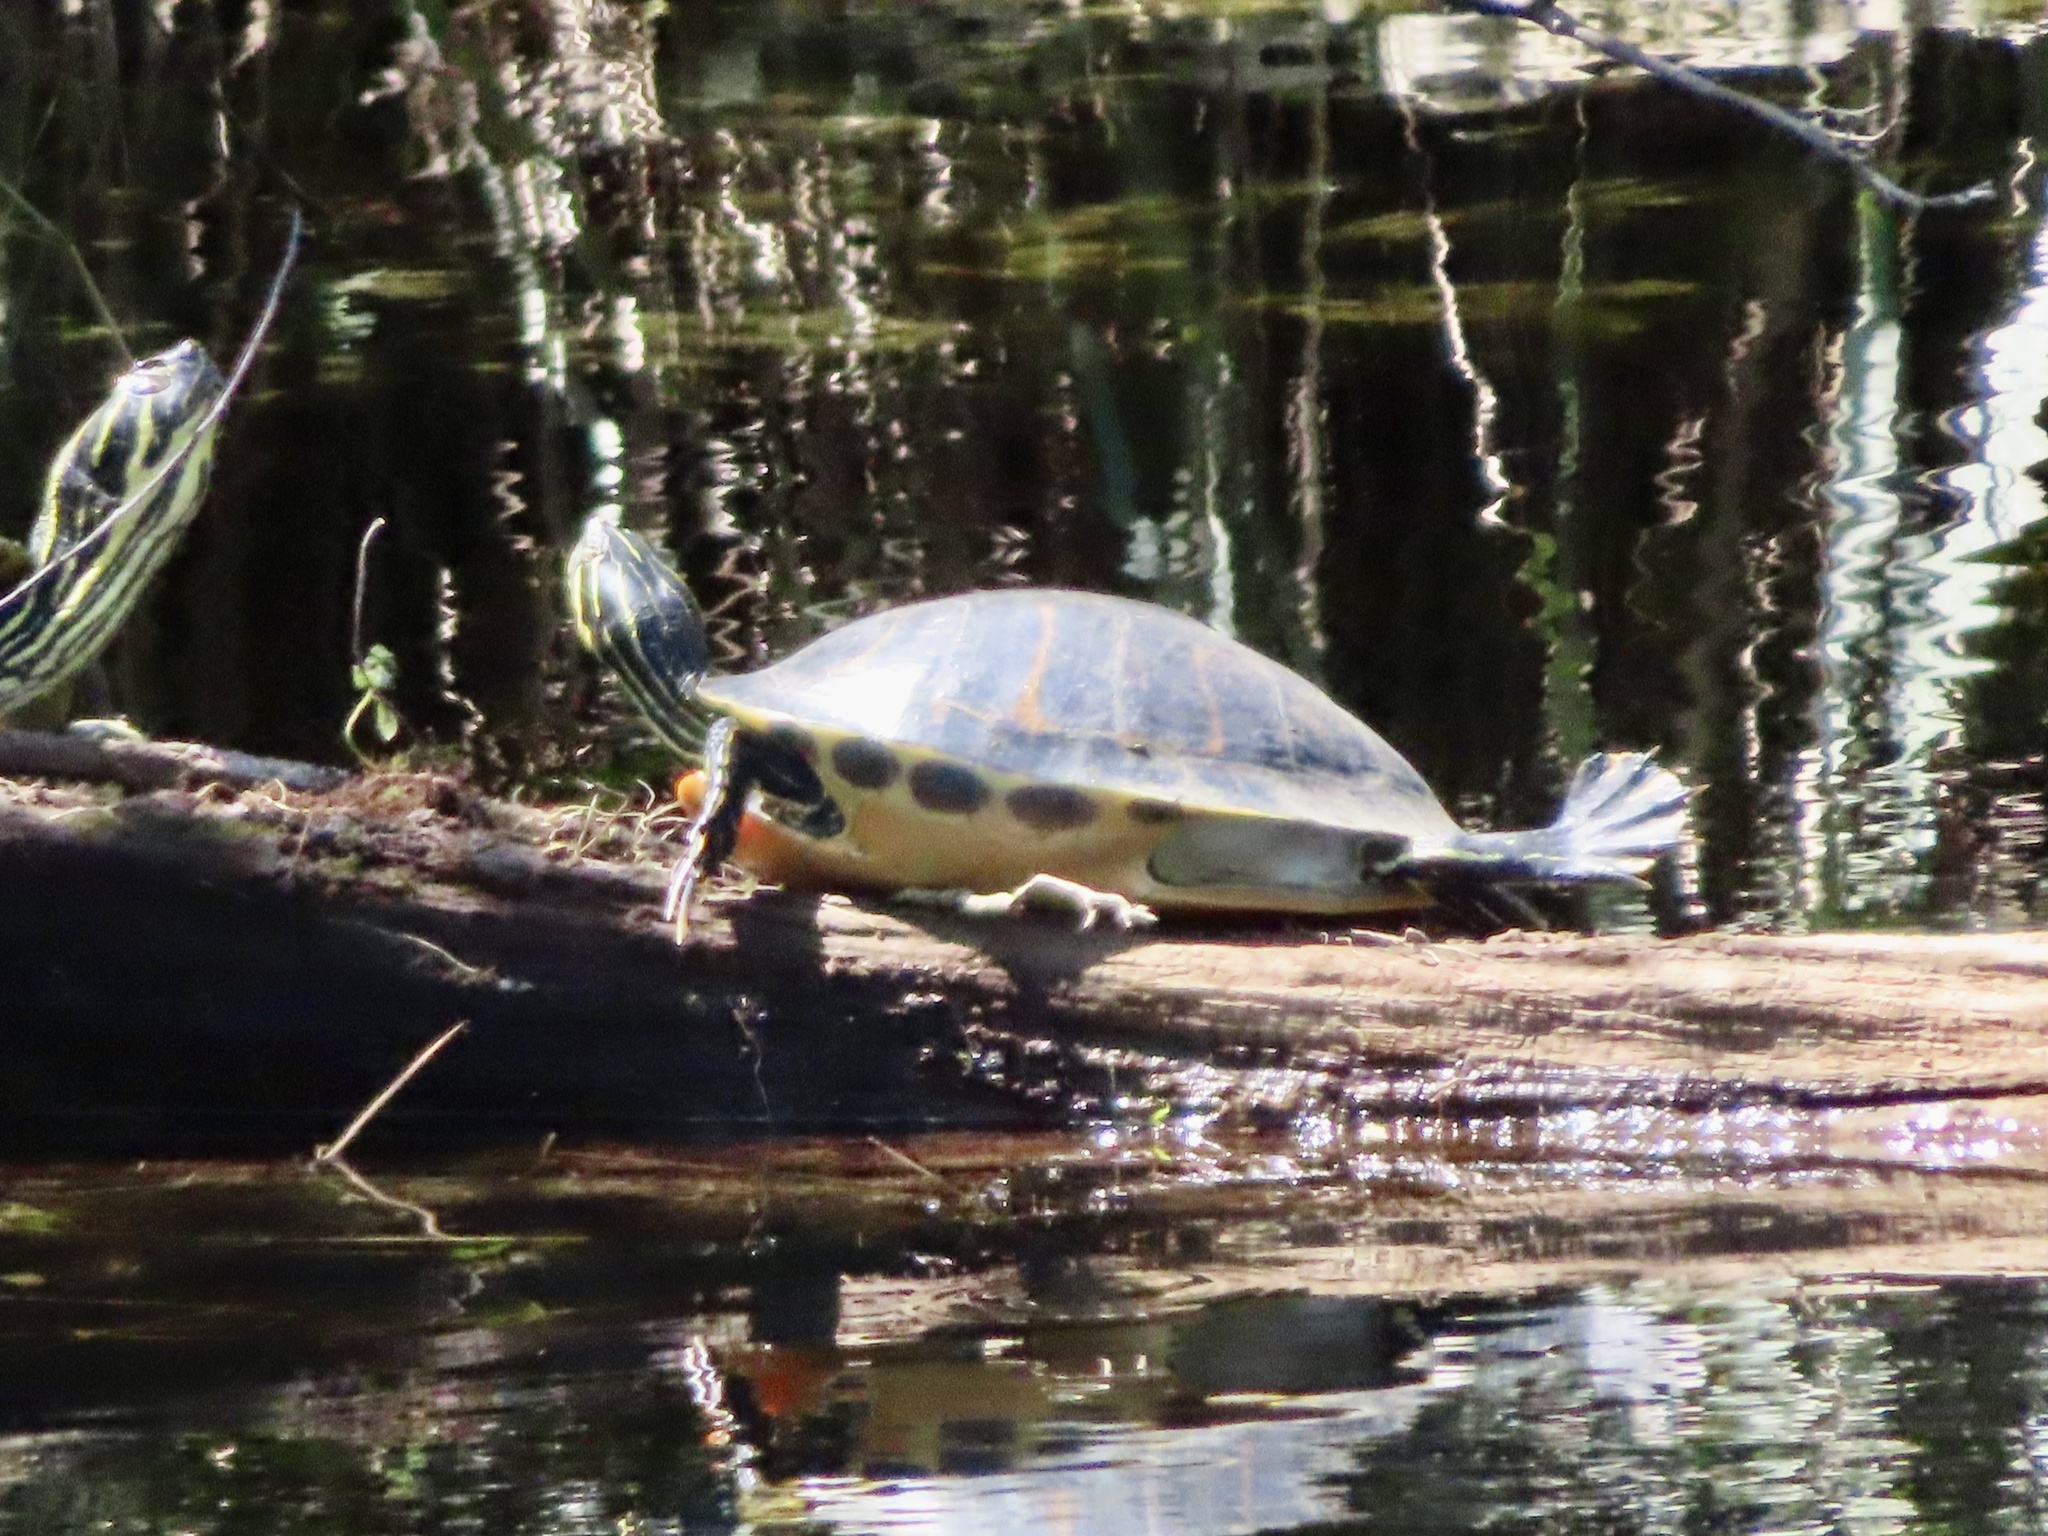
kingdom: Animalia
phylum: Chordata
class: Testudines
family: Emydidae
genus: Pseudemys
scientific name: Pseudemys peninsularis
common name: Peninsula cooter
